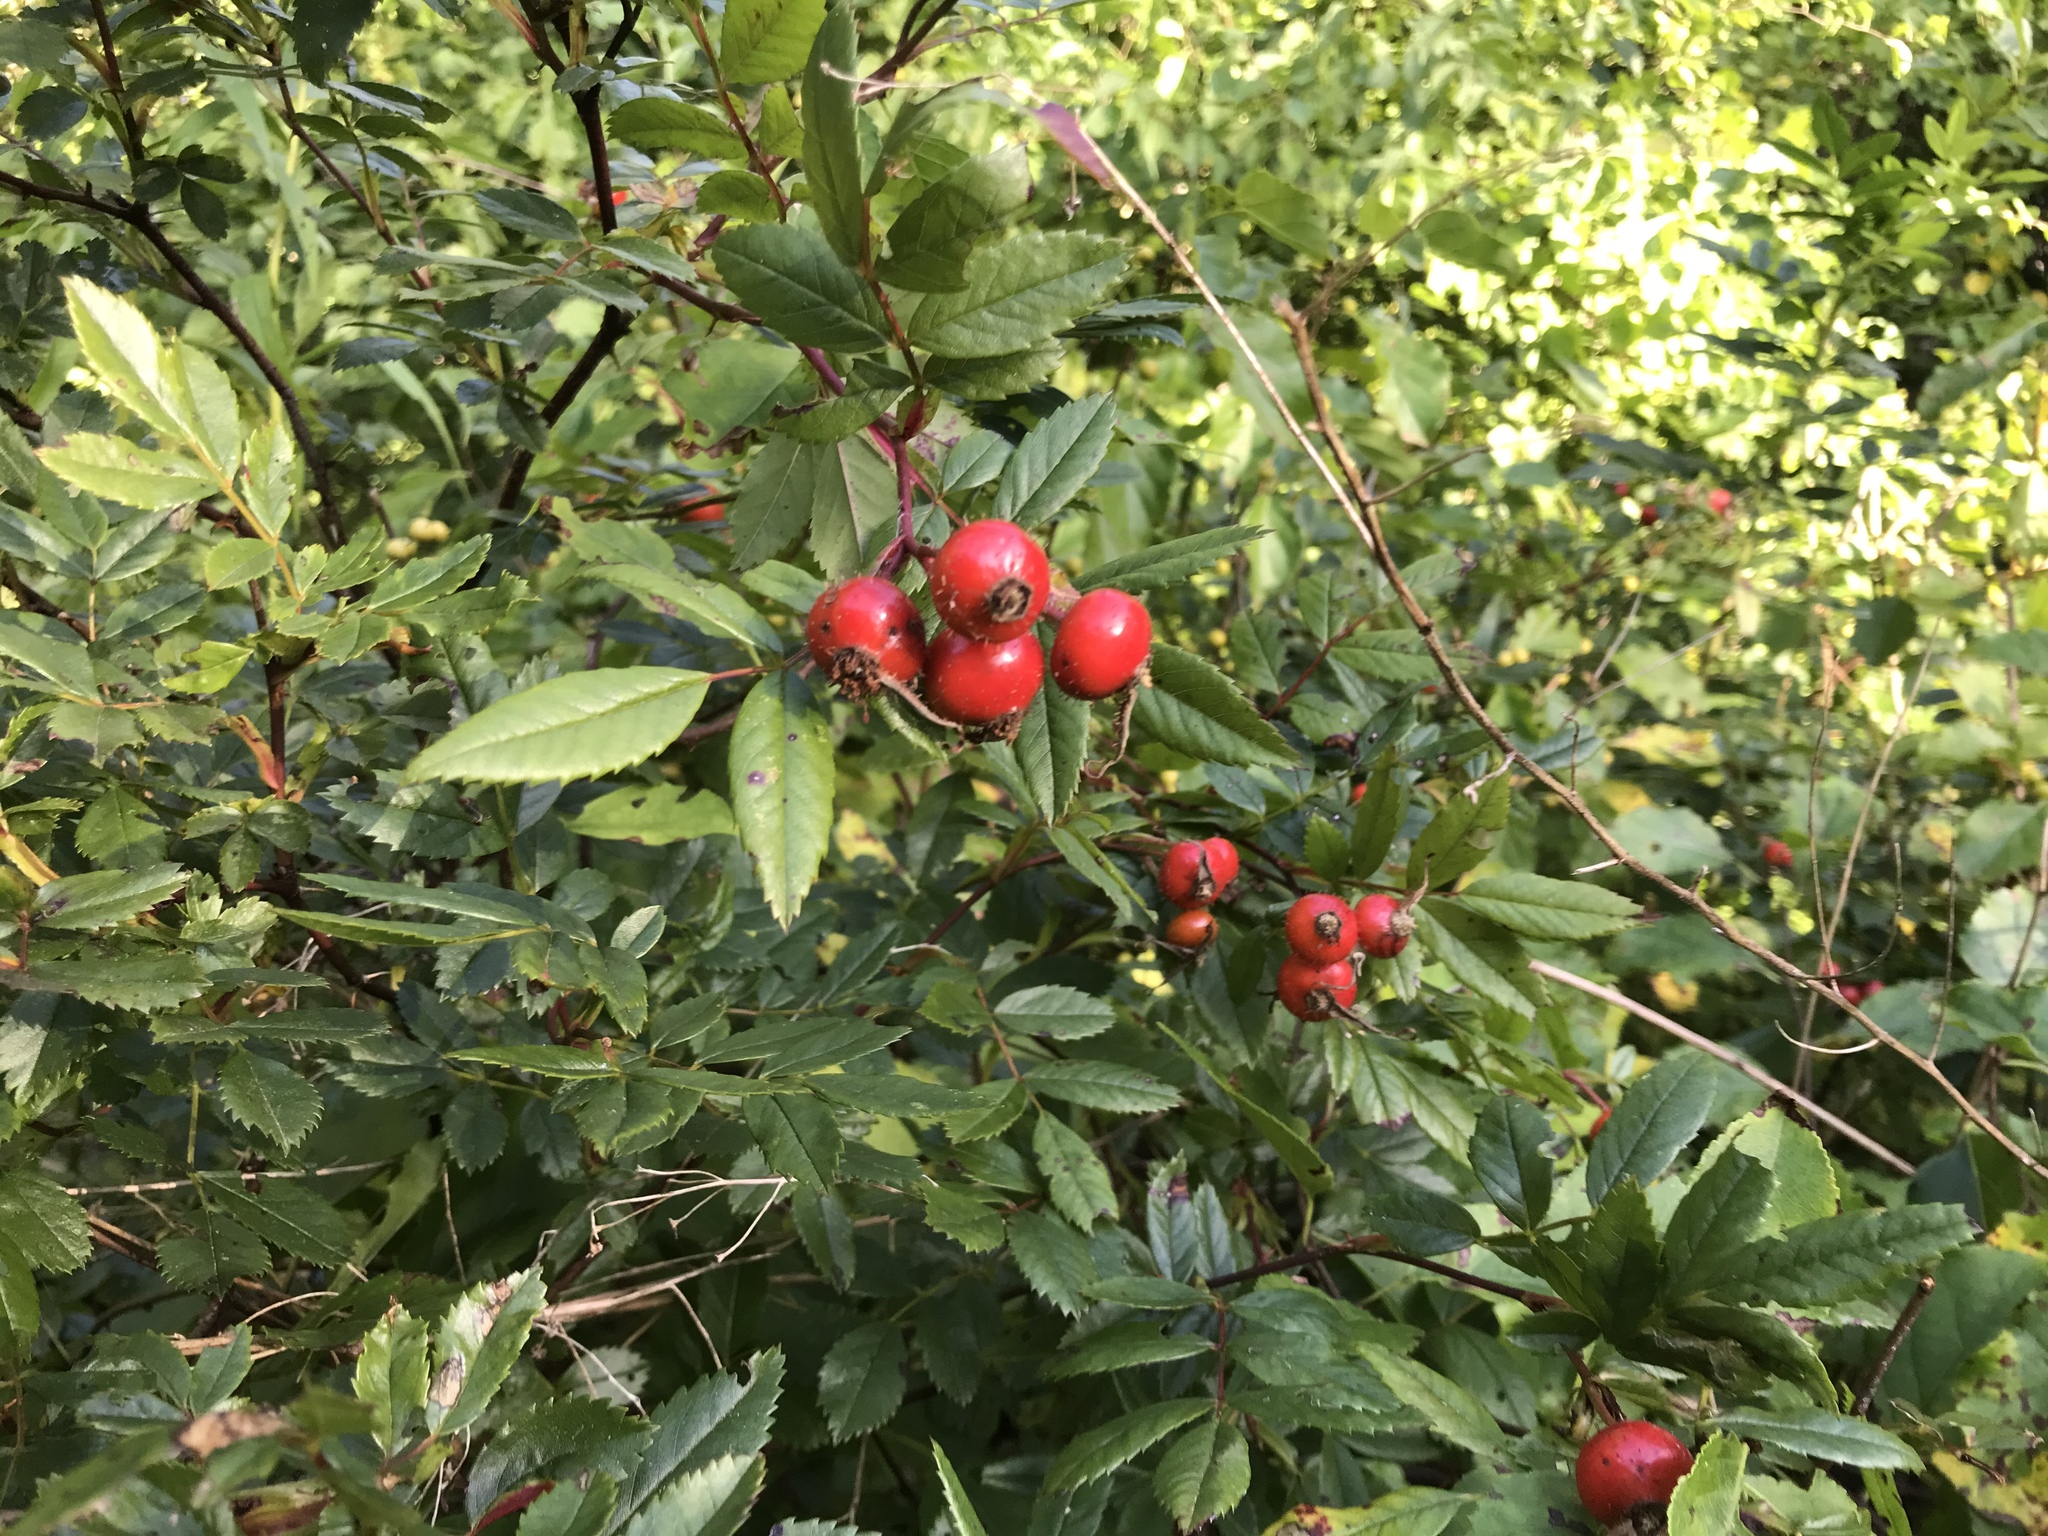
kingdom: Plantae
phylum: Tracheophyta
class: Magnoliopsida
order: Rosales
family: Rosaceae
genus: Rosa
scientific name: Rosa palustris
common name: Swamp rose
